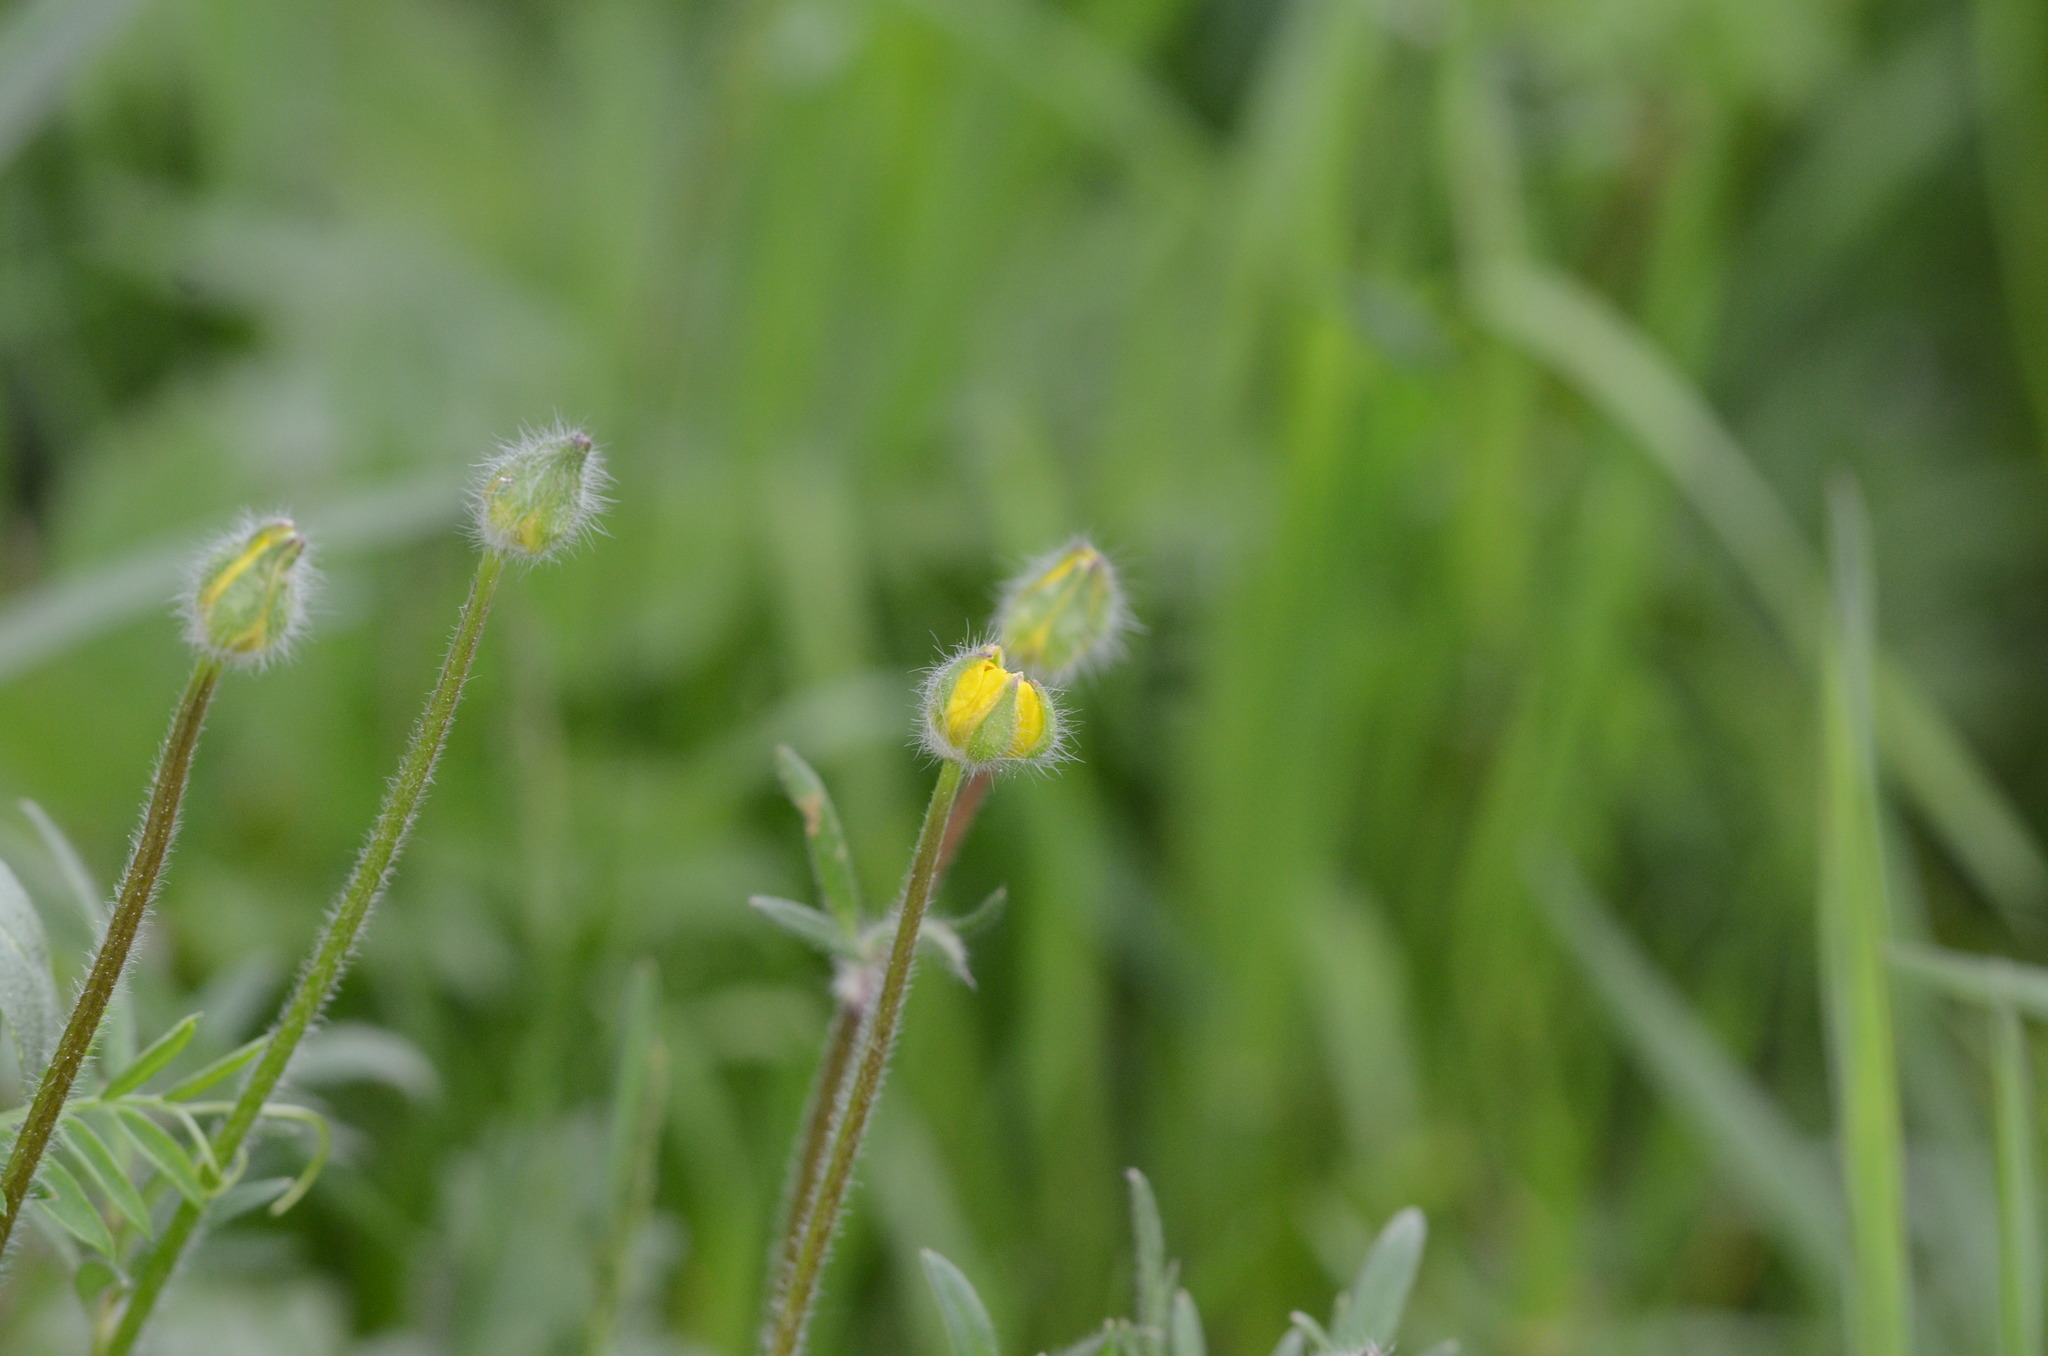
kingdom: Plantae
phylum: Tracheophyta
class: Magnoliopsida
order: Ranunculales
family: Ranunculaceae
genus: Ranunculus
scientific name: Ranunculus bulbosus
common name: Bulbous buttercup
